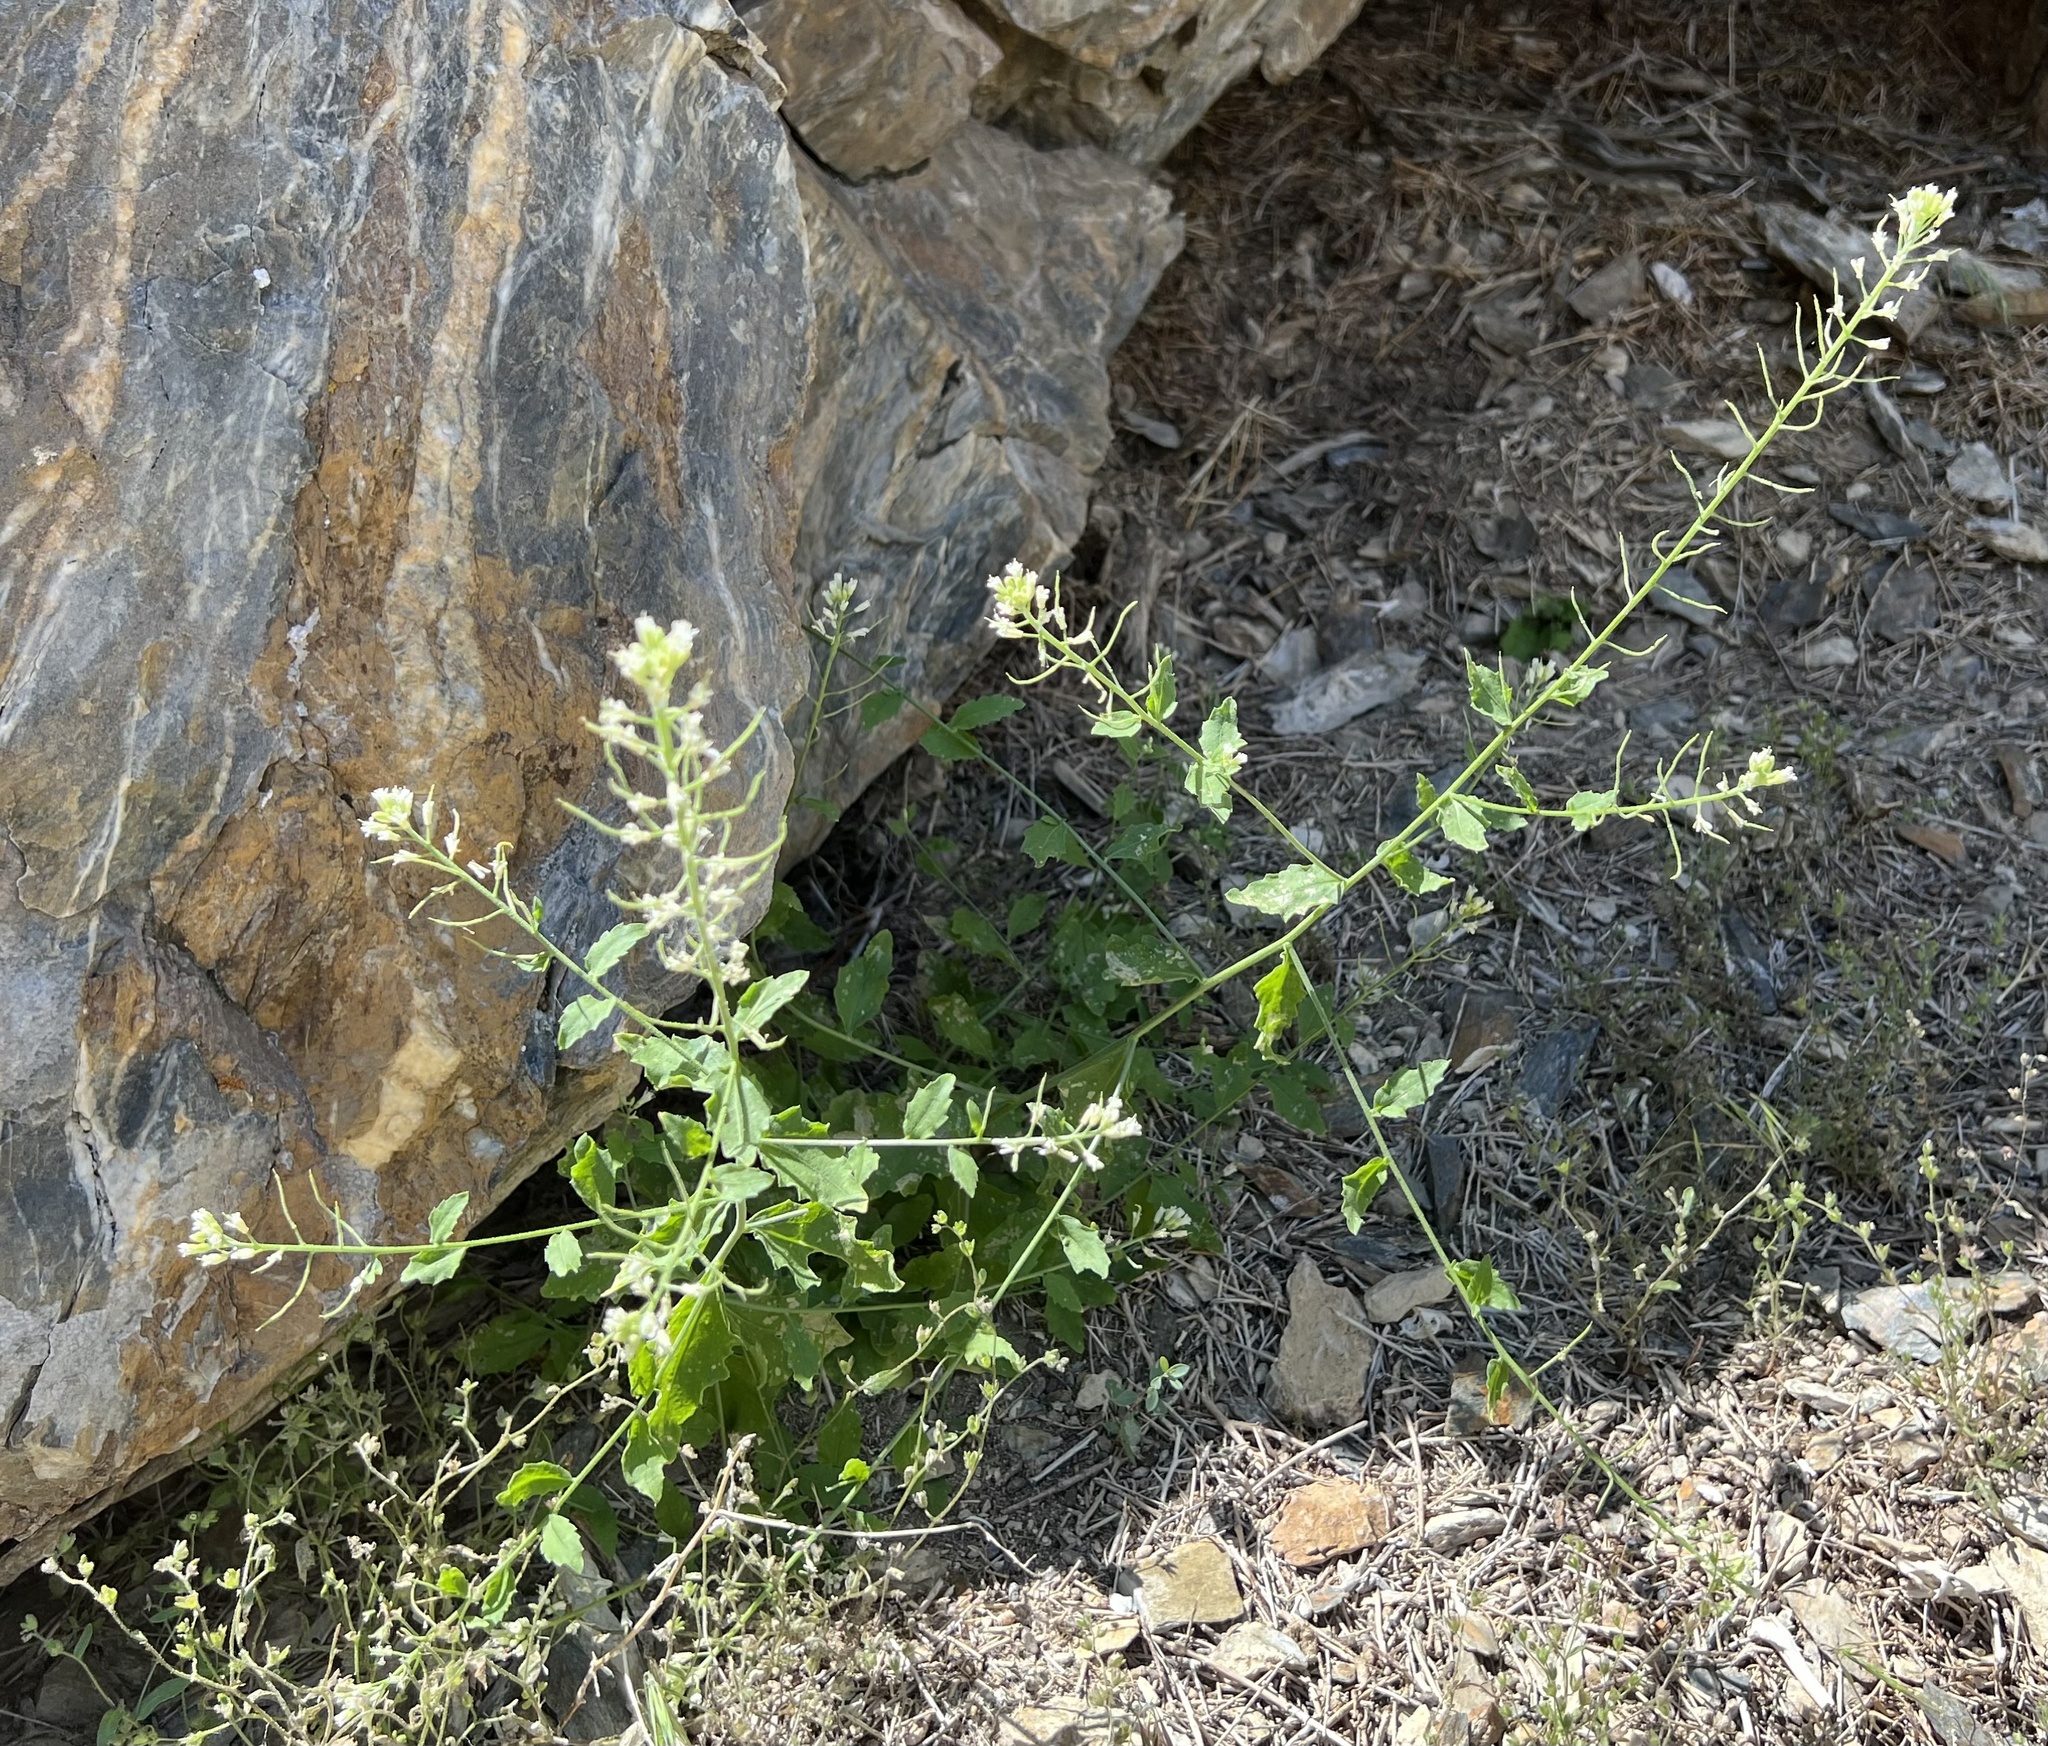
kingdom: Plantae
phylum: Tracheophyta
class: Magnoliopsida
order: Brassicales
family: Brassicaceae
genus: Halimolobos
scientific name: Halimolobos jaegeri
